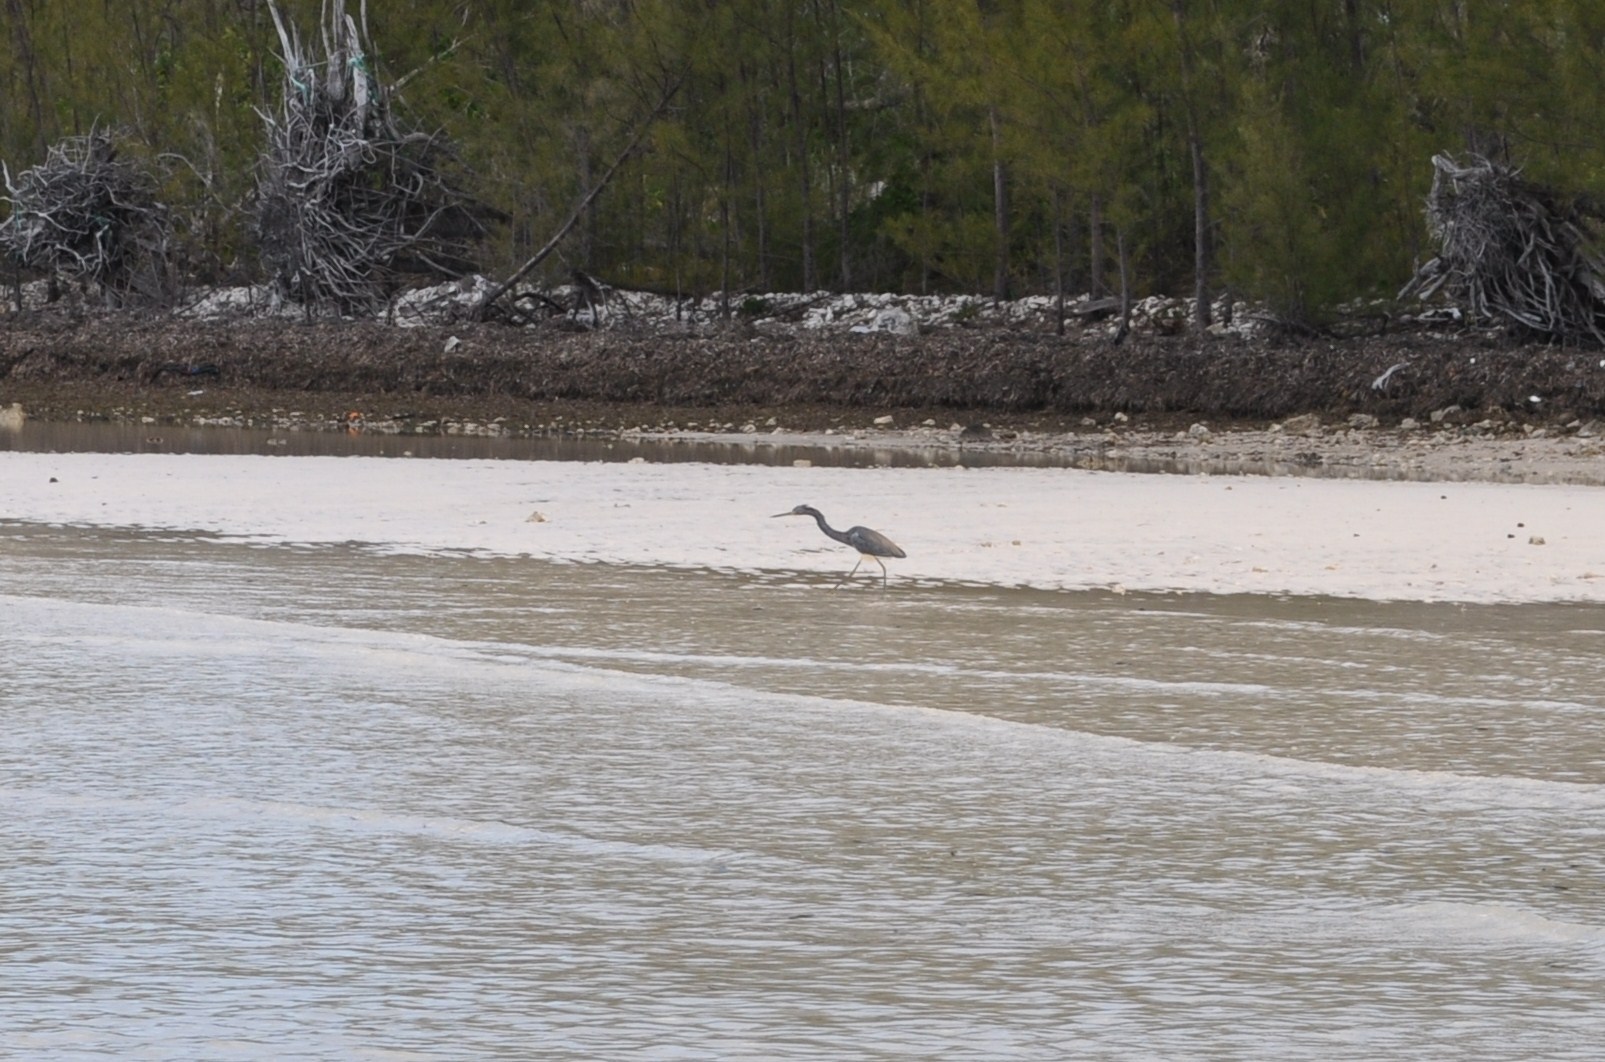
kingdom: Animalia
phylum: Chordata
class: Aves
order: Pelecaniformes
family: Ardeidae
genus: Egretta
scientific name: Egretta tricolor
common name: Tricolored heron
